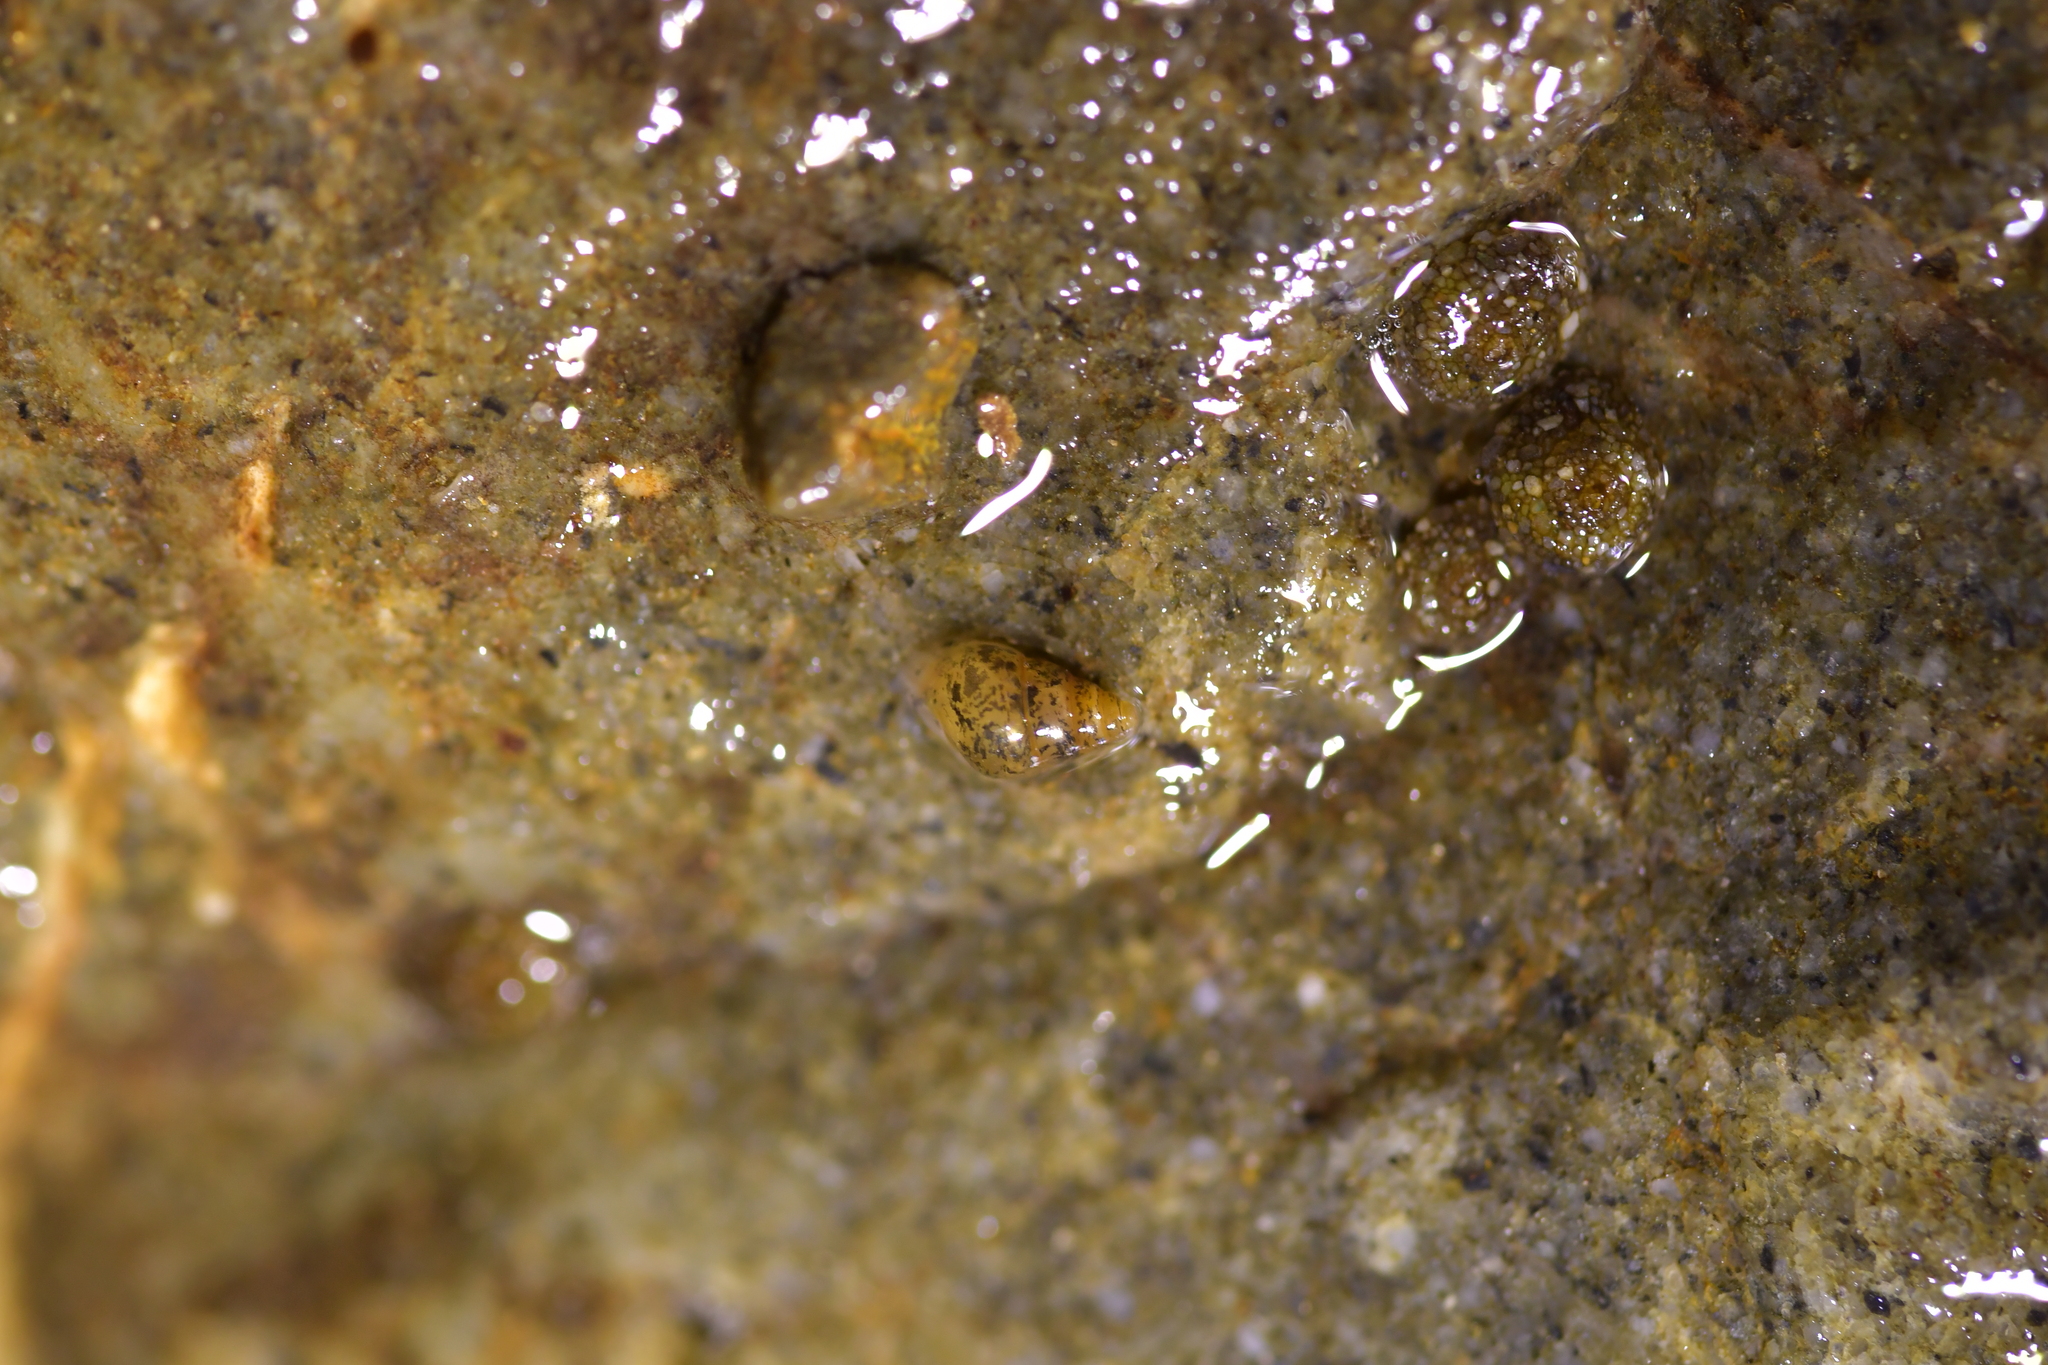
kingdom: Animalia
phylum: Mollusca
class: Gastropoda
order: Littorinimorpha
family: Tateidae
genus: Potamopyrgus
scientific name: Potamopyrgus antipodarum
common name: Jenkins' spire snail
